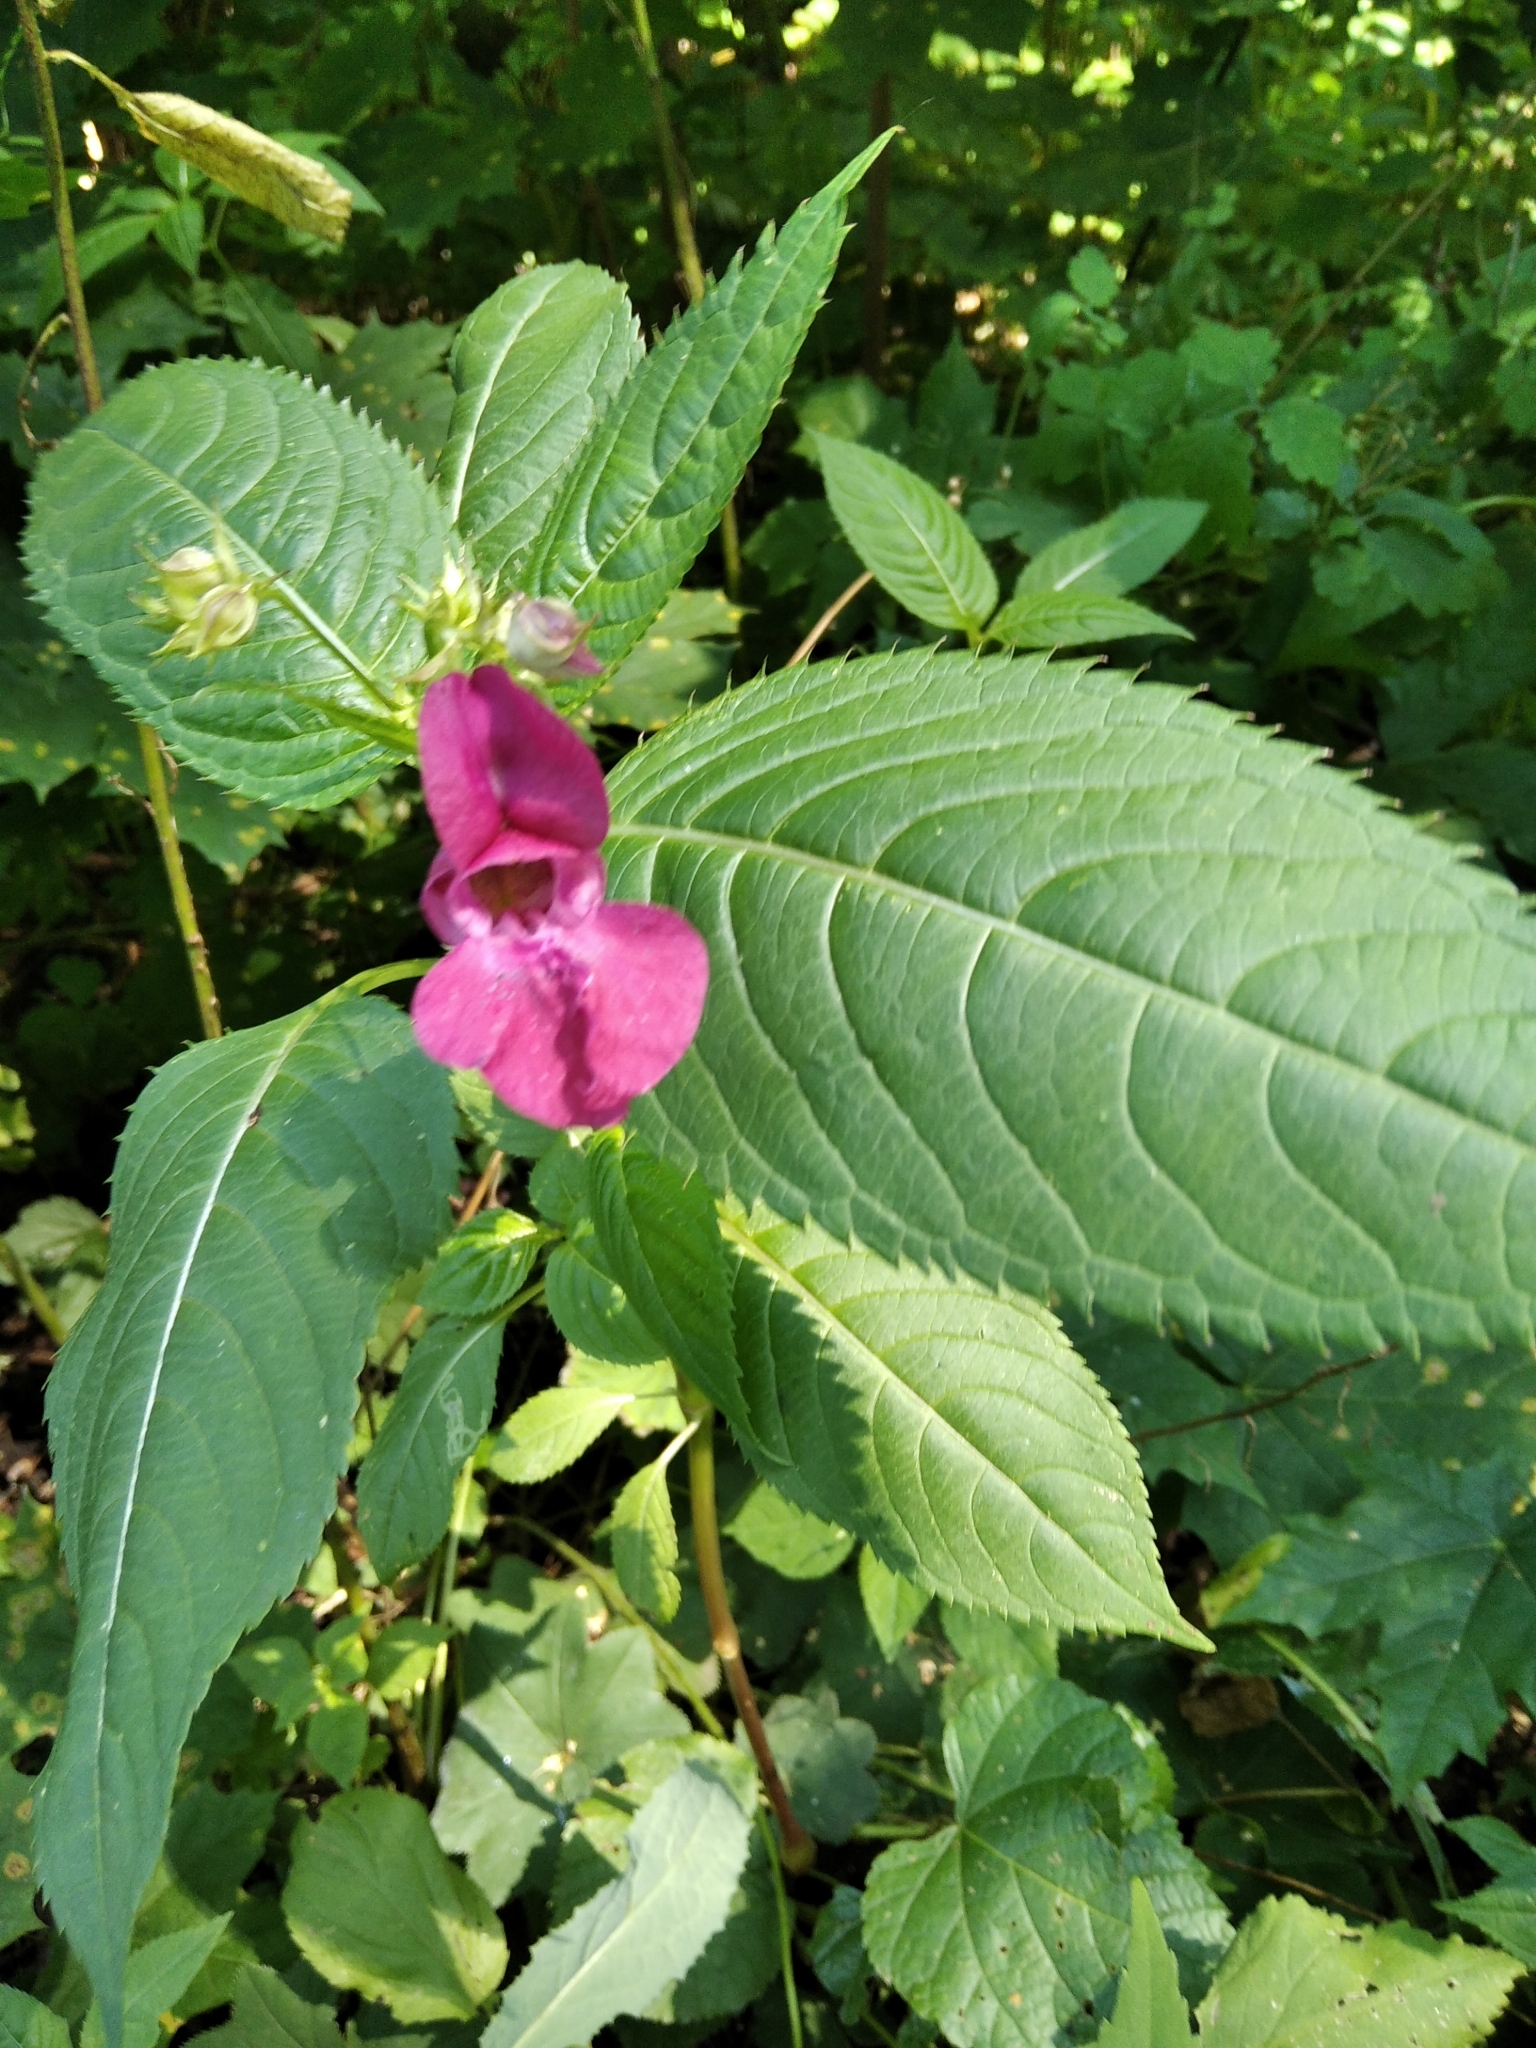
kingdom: Plantae
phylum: Tracheophyta
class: Magnoliopsida
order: Ericales
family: Balsaminaceae
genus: Impatiens
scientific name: Impatiens glandulifera
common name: Himalayan balsam
